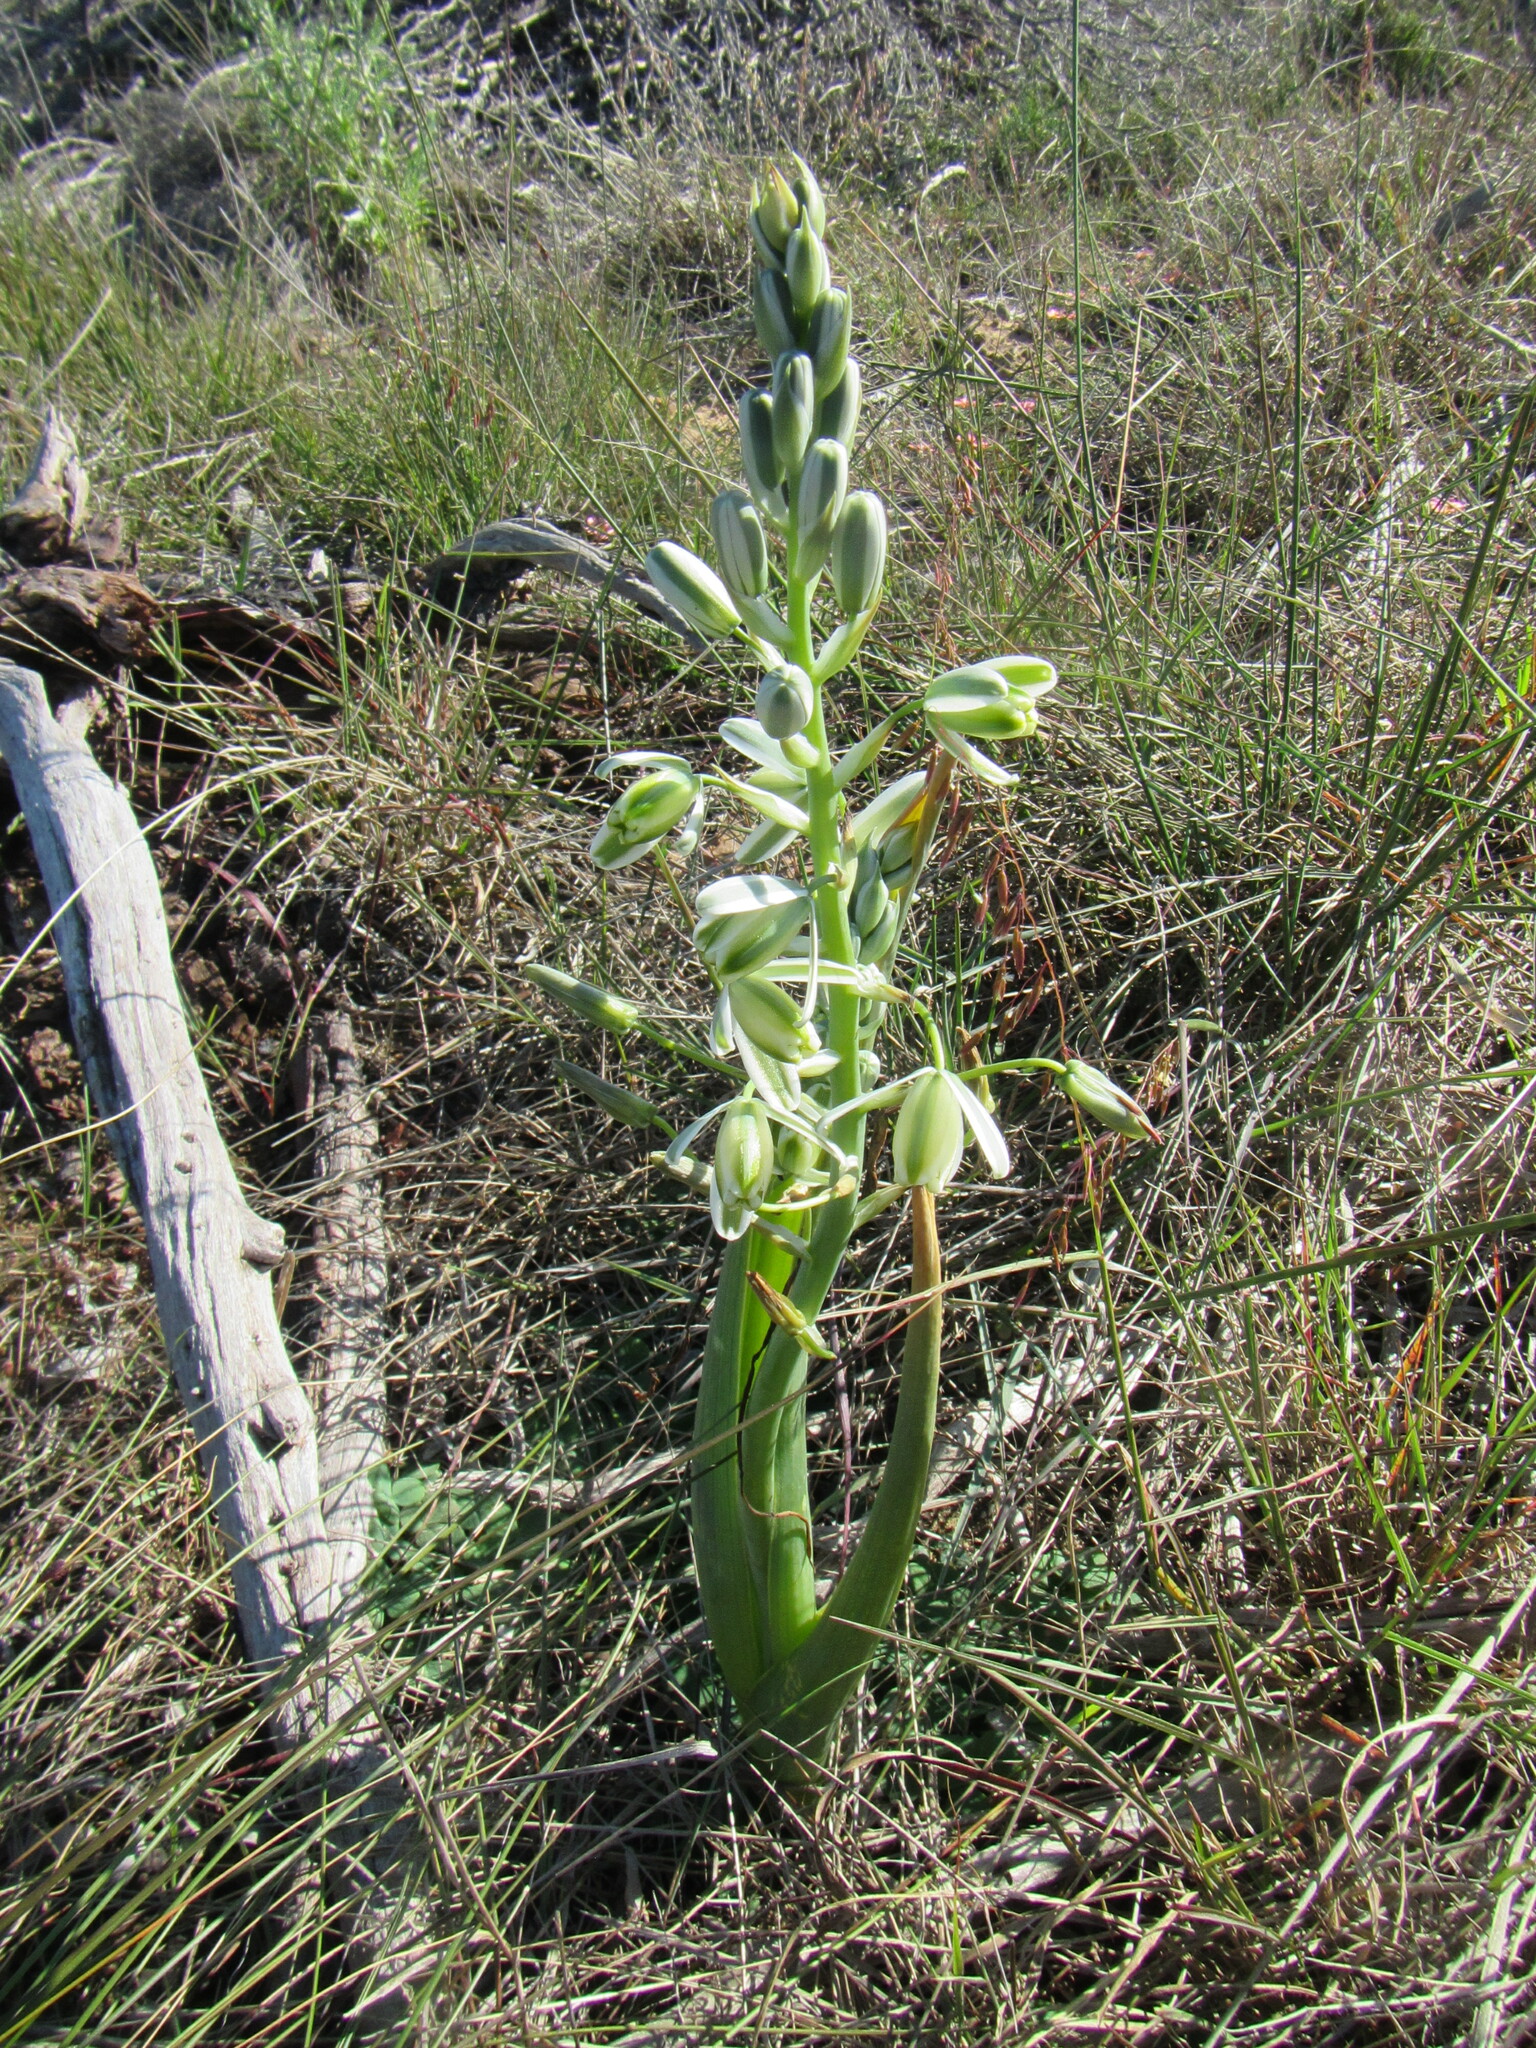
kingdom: Plantae
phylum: Tracheophyta
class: Liliopsida
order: Asparagales
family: Asparagaceae
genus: Albuca
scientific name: Albuca canadensis
